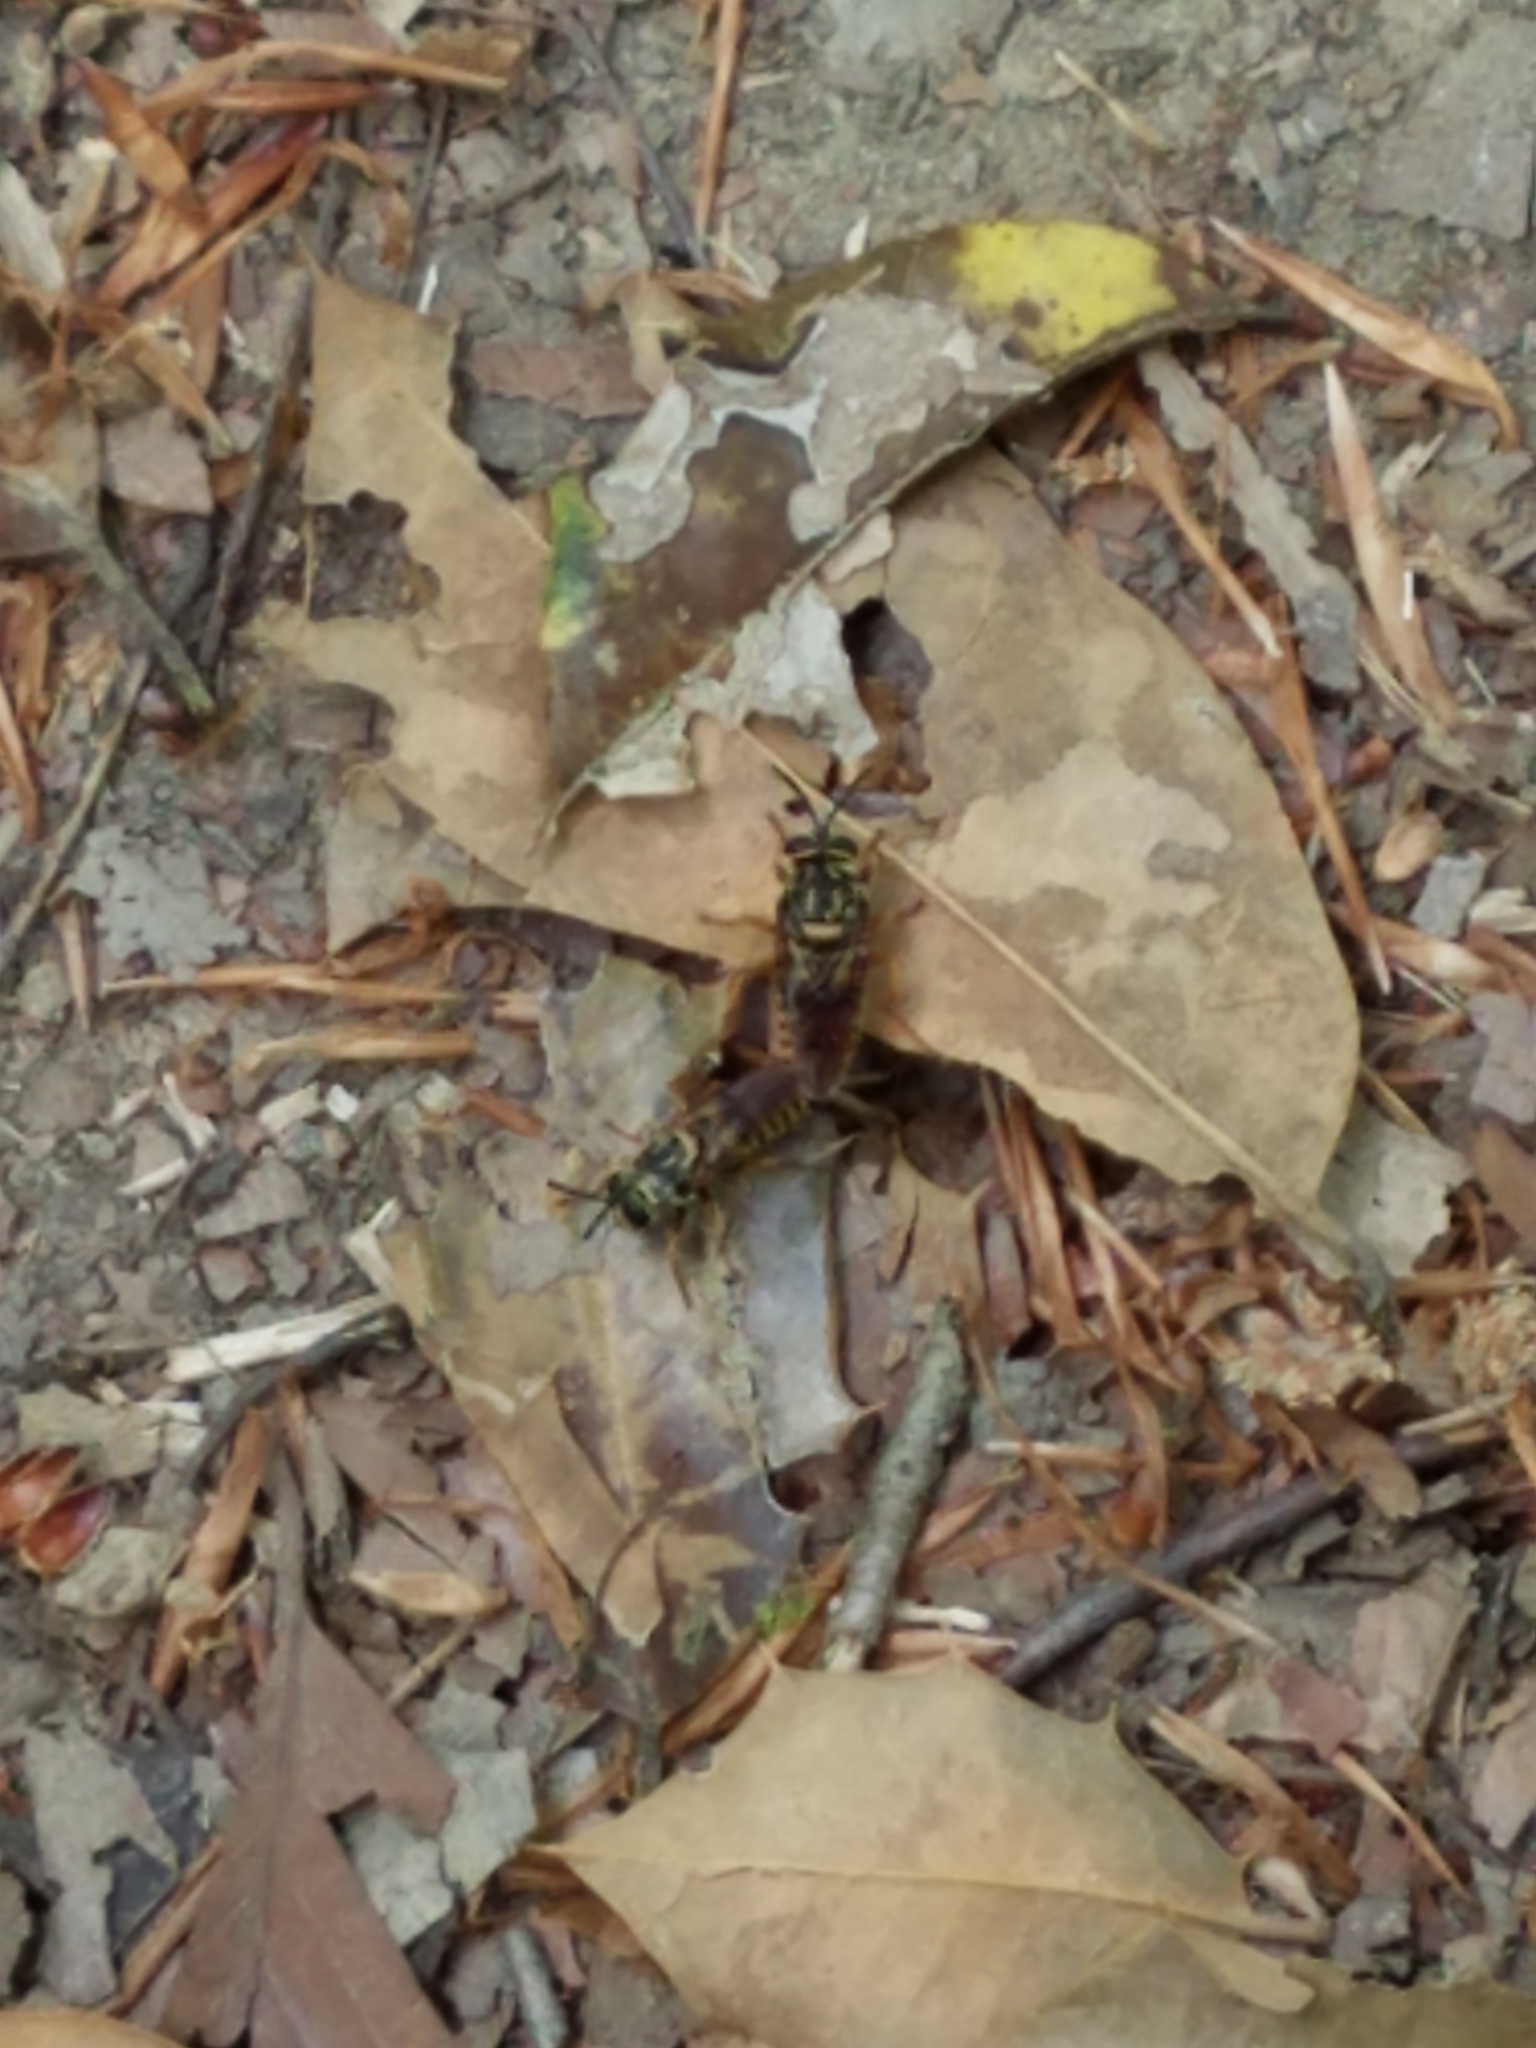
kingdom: Animalia
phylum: Arthropoda
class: Insecta
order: Diptera
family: Syrphidae
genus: Sphecomyia
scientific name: Sphecomyia vittata
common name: Long-horned yellowjacket fly
